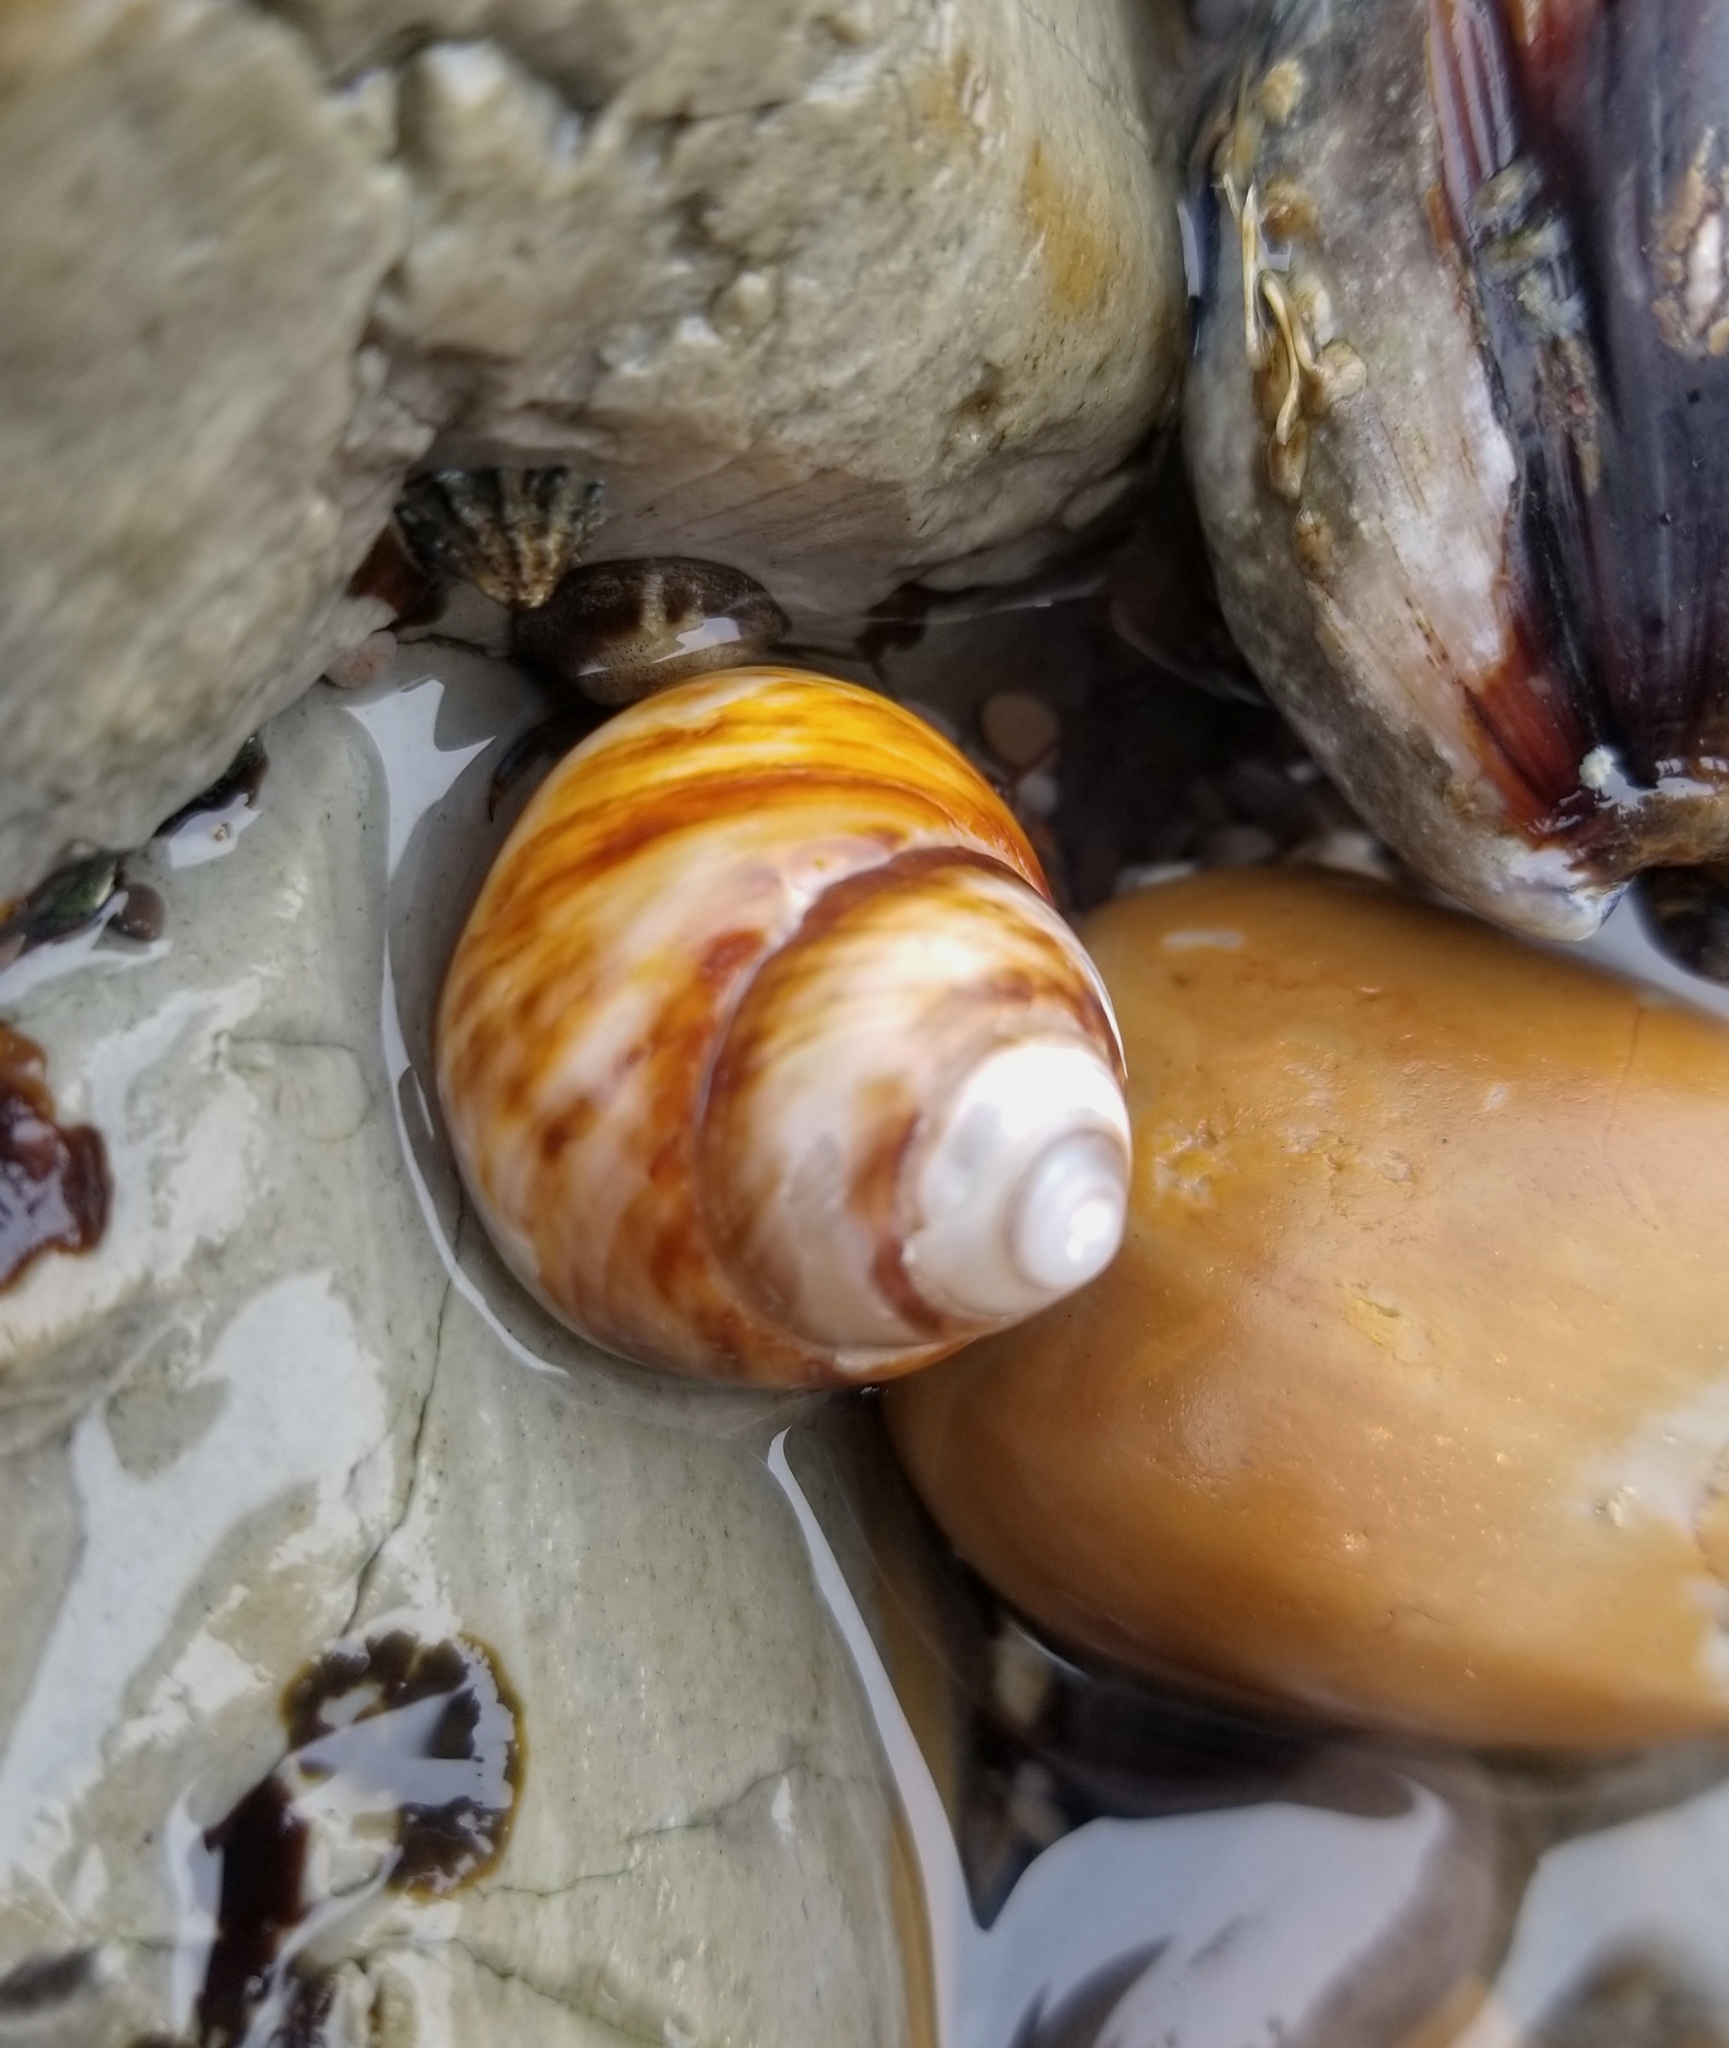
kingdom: Animalia
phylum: Mollusca
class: Gastropoda
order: Trochida
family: Tegulidae
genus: Tegula
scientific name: Tegula brunnea
